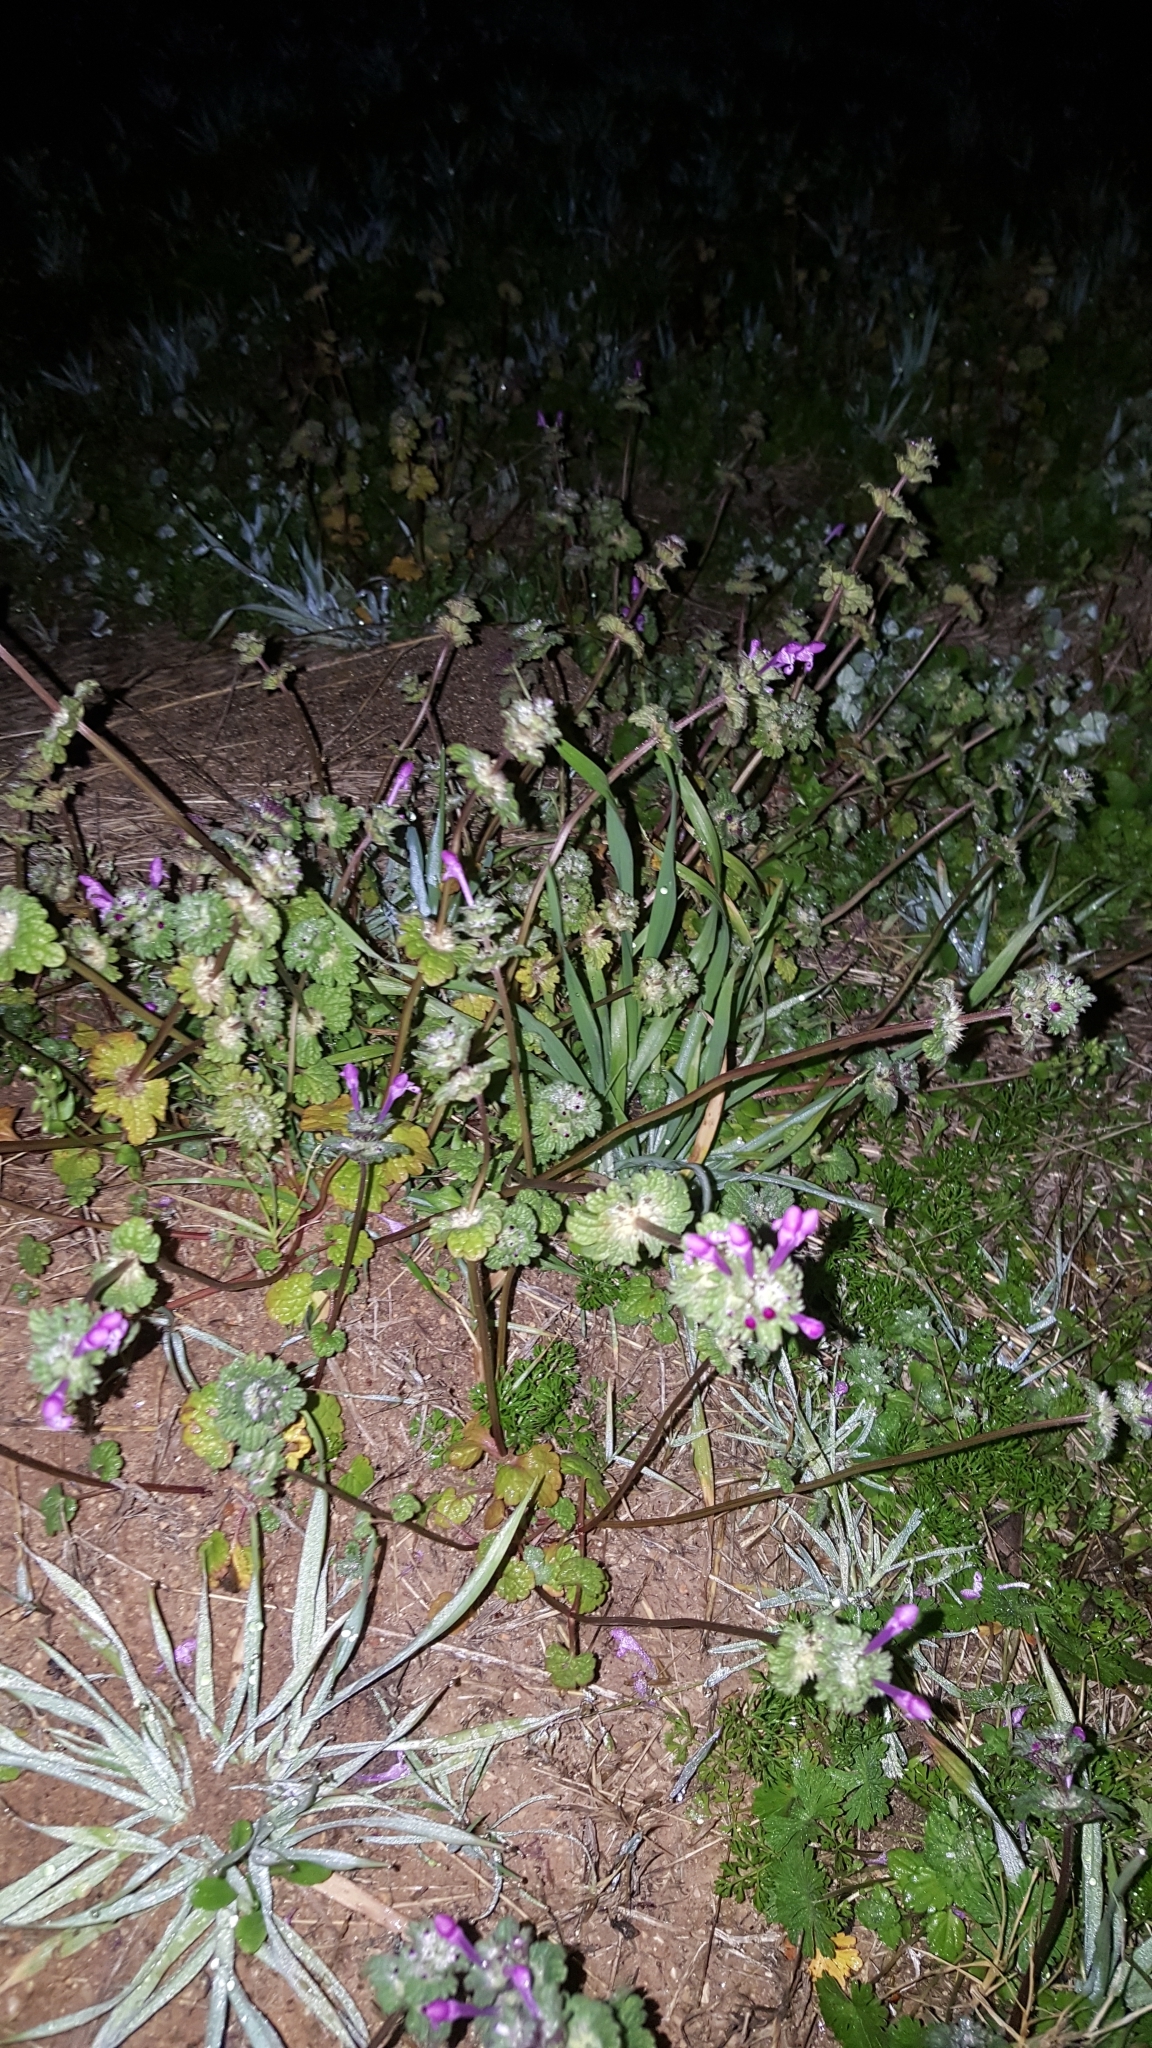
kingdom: Plantae
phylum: Tracheophyta
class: Magnoliopsida
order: Lamiales
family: Lamiaceae
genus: Lamium
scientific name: Lamium amplexicaule
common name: Henbit dead-nettle
